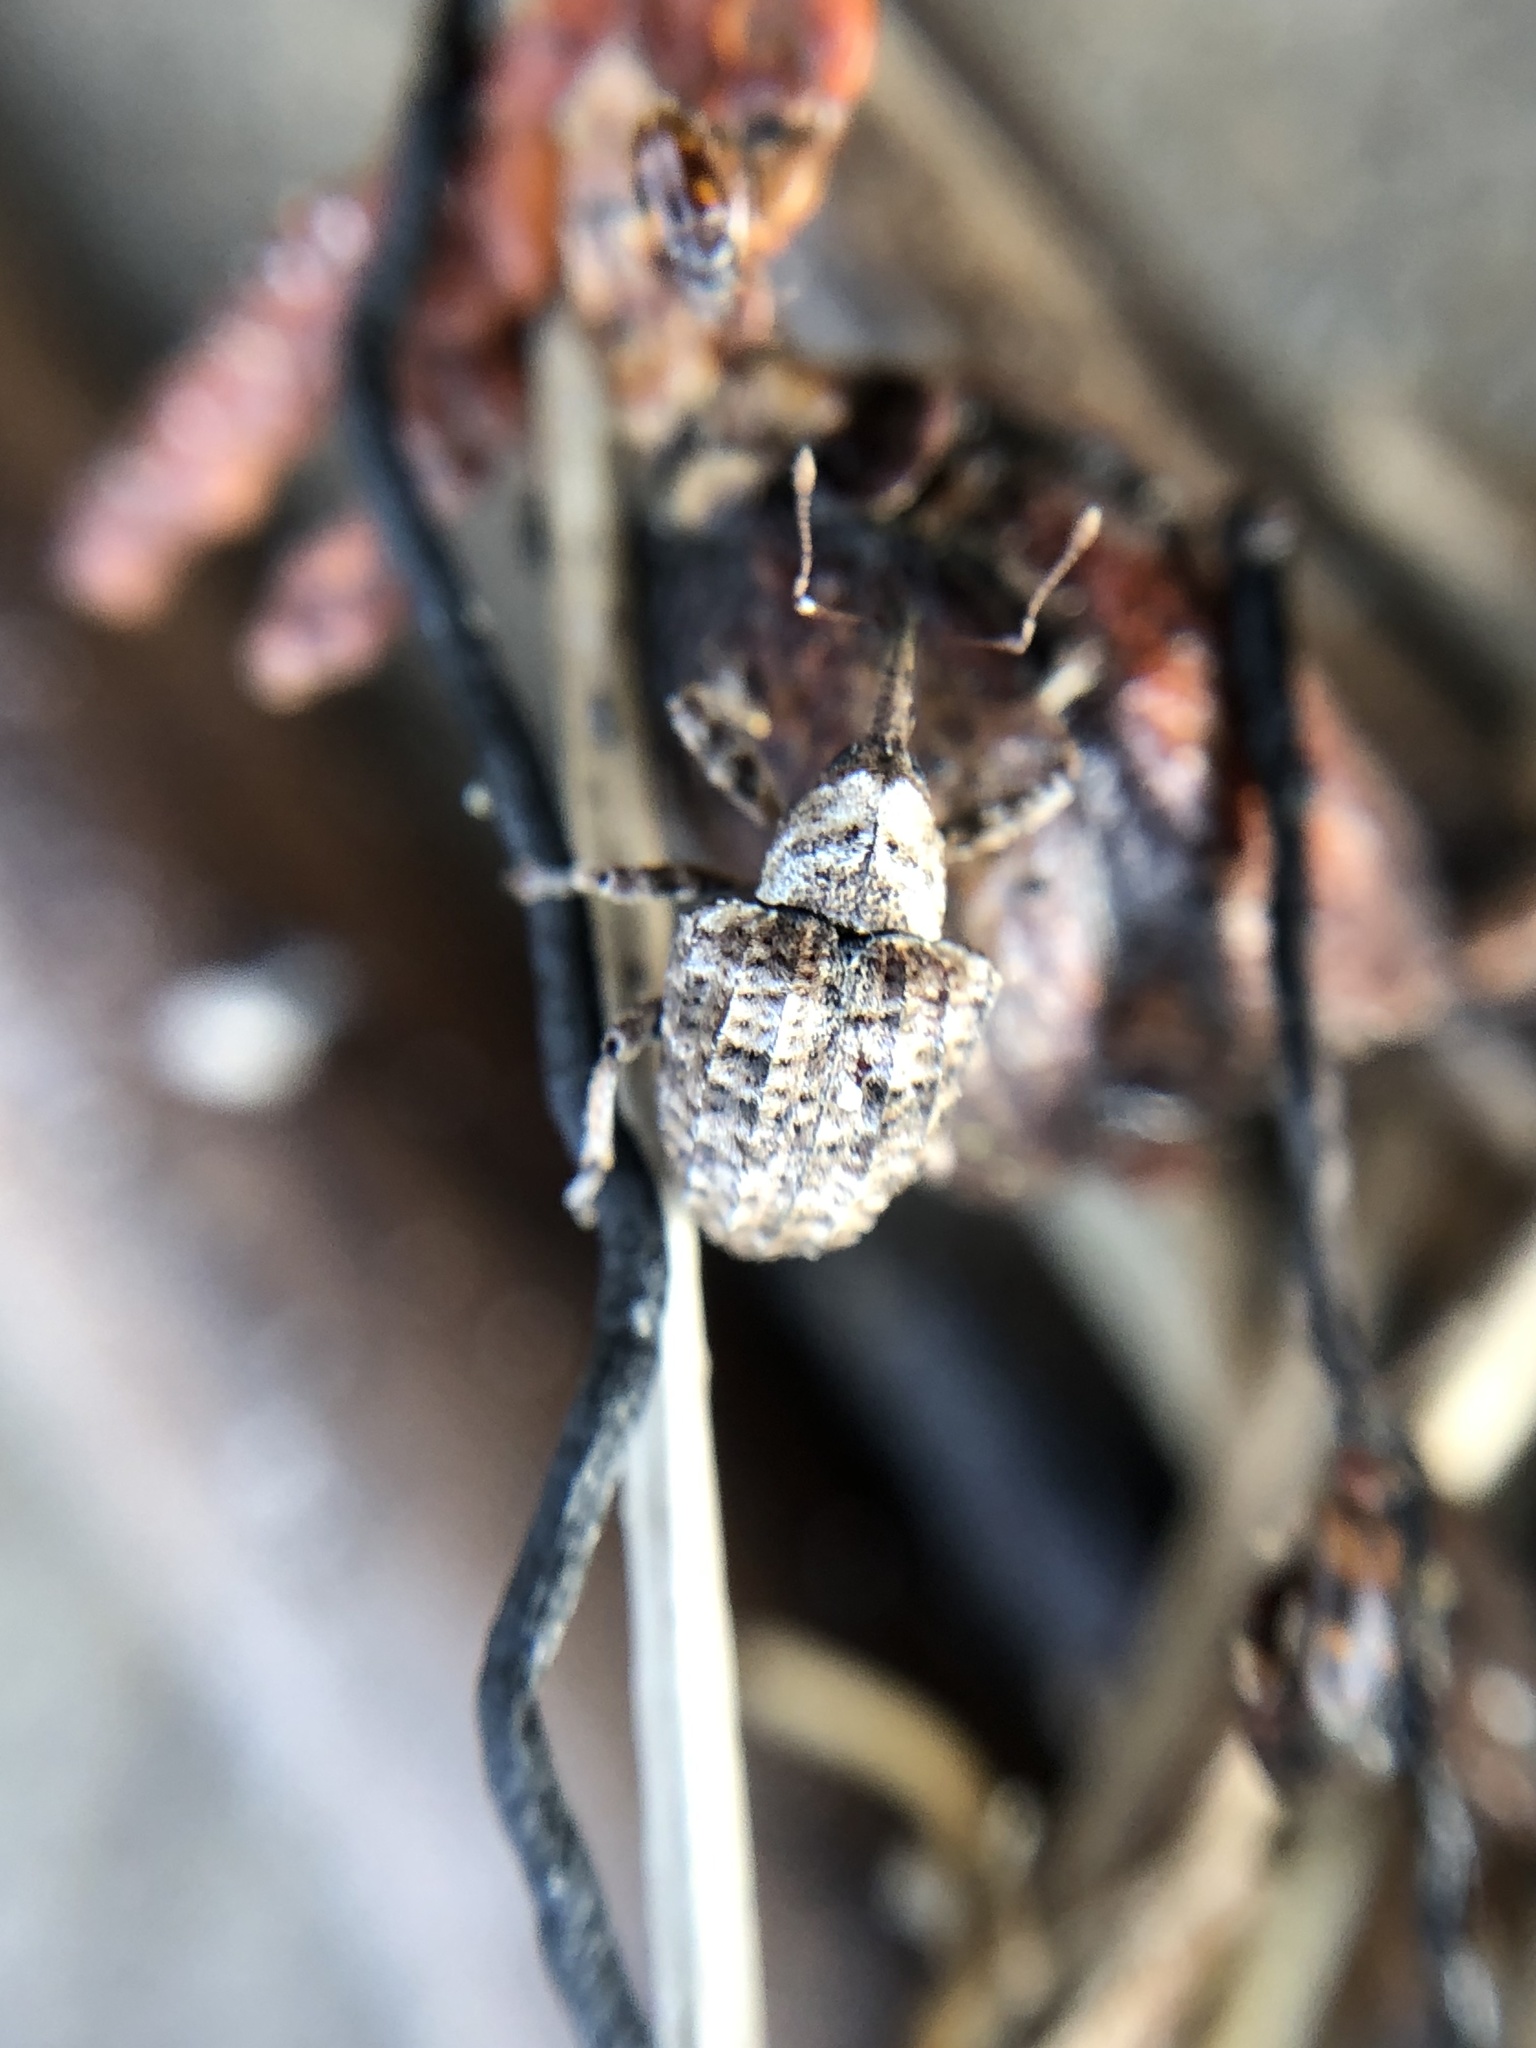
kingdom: Animalia
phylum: Arthropoda
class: Insecta
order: Coleoptera
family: Curculionidae
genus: Conotrachelus
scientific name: Conotrachelus crataegi
